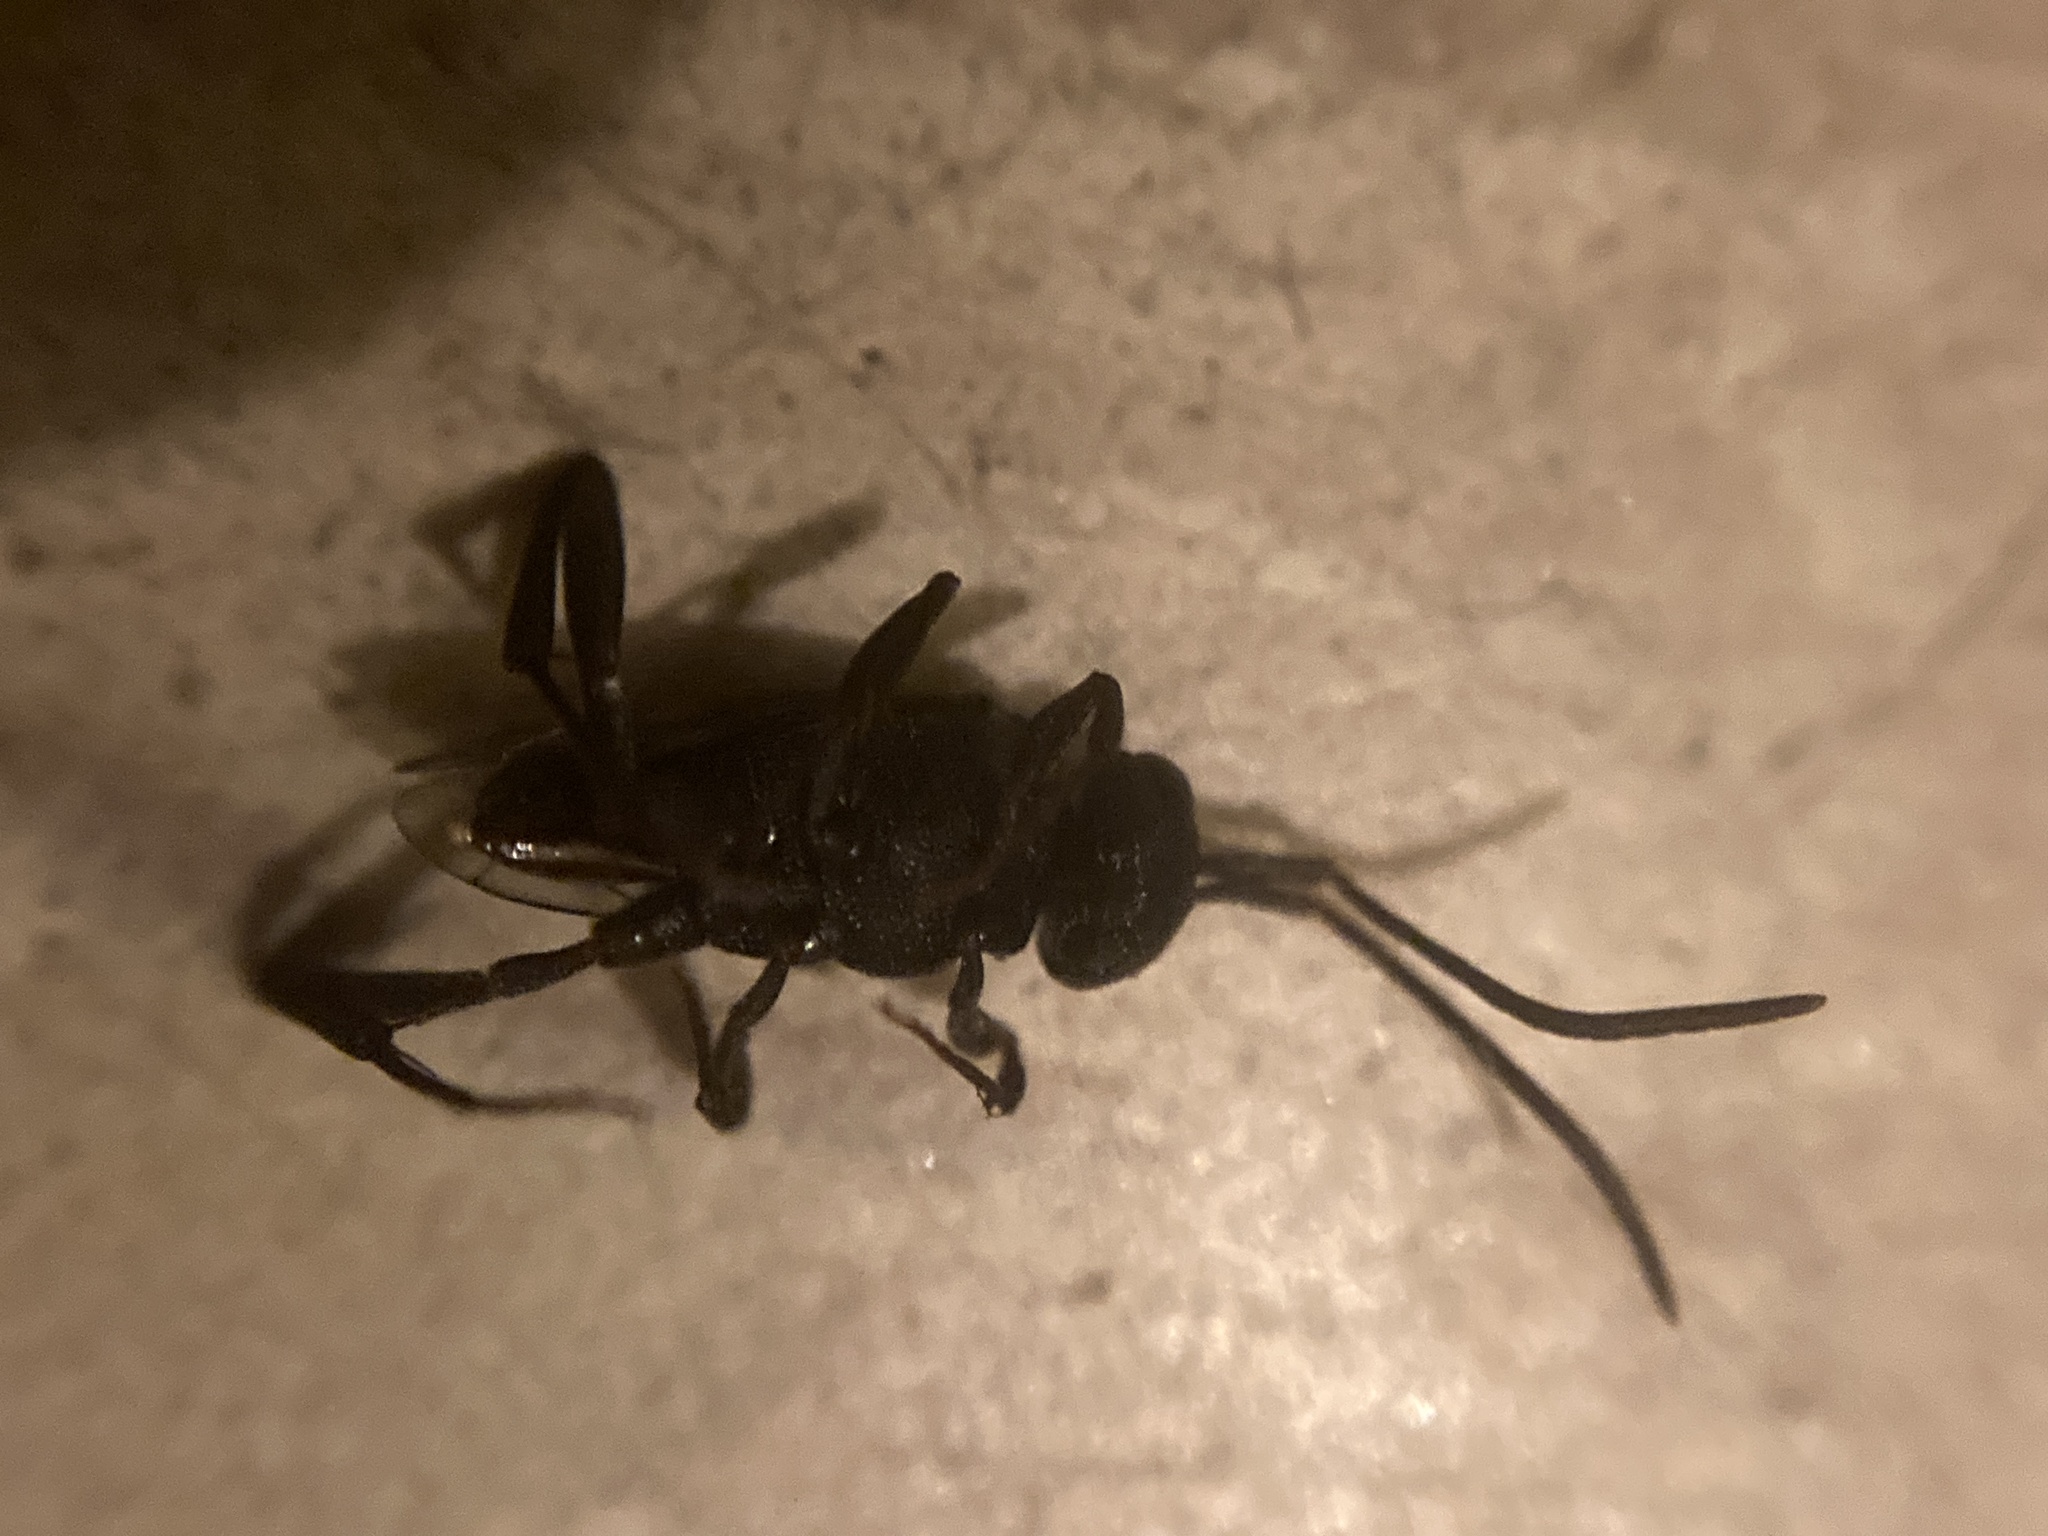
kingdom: Animalia
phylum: Arthropoda
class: Insecta
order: Hymenoptera
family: Evaniidae
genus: Evania
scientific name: Evania appendigaster
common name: Ensign wasp
